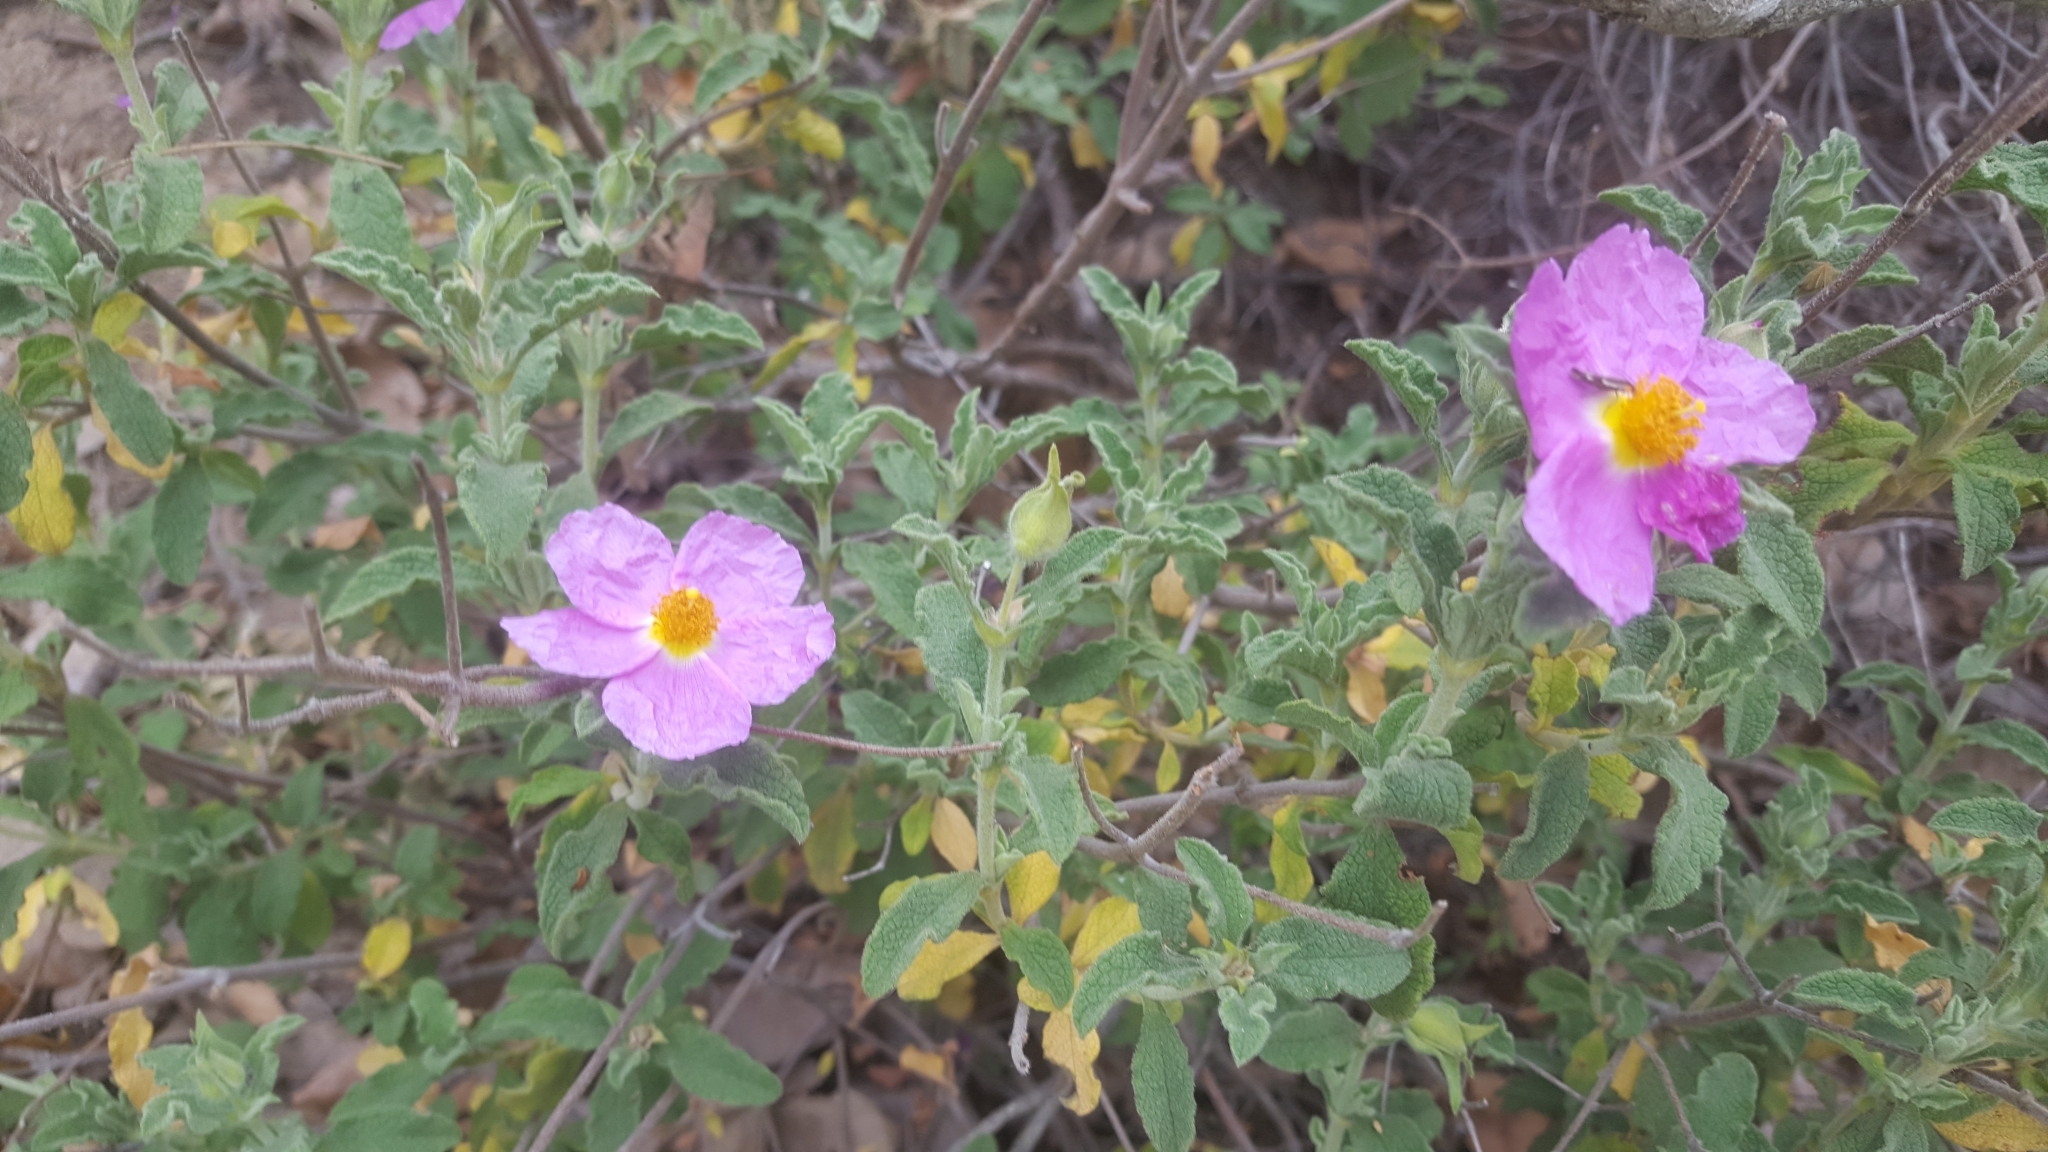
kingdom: Plantae
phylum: Tracheophyta
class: Magnoliopsida
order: Malvales
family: Cistaceae
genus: Cistus
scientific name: Cistus creticus
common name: Cretan rockrose
